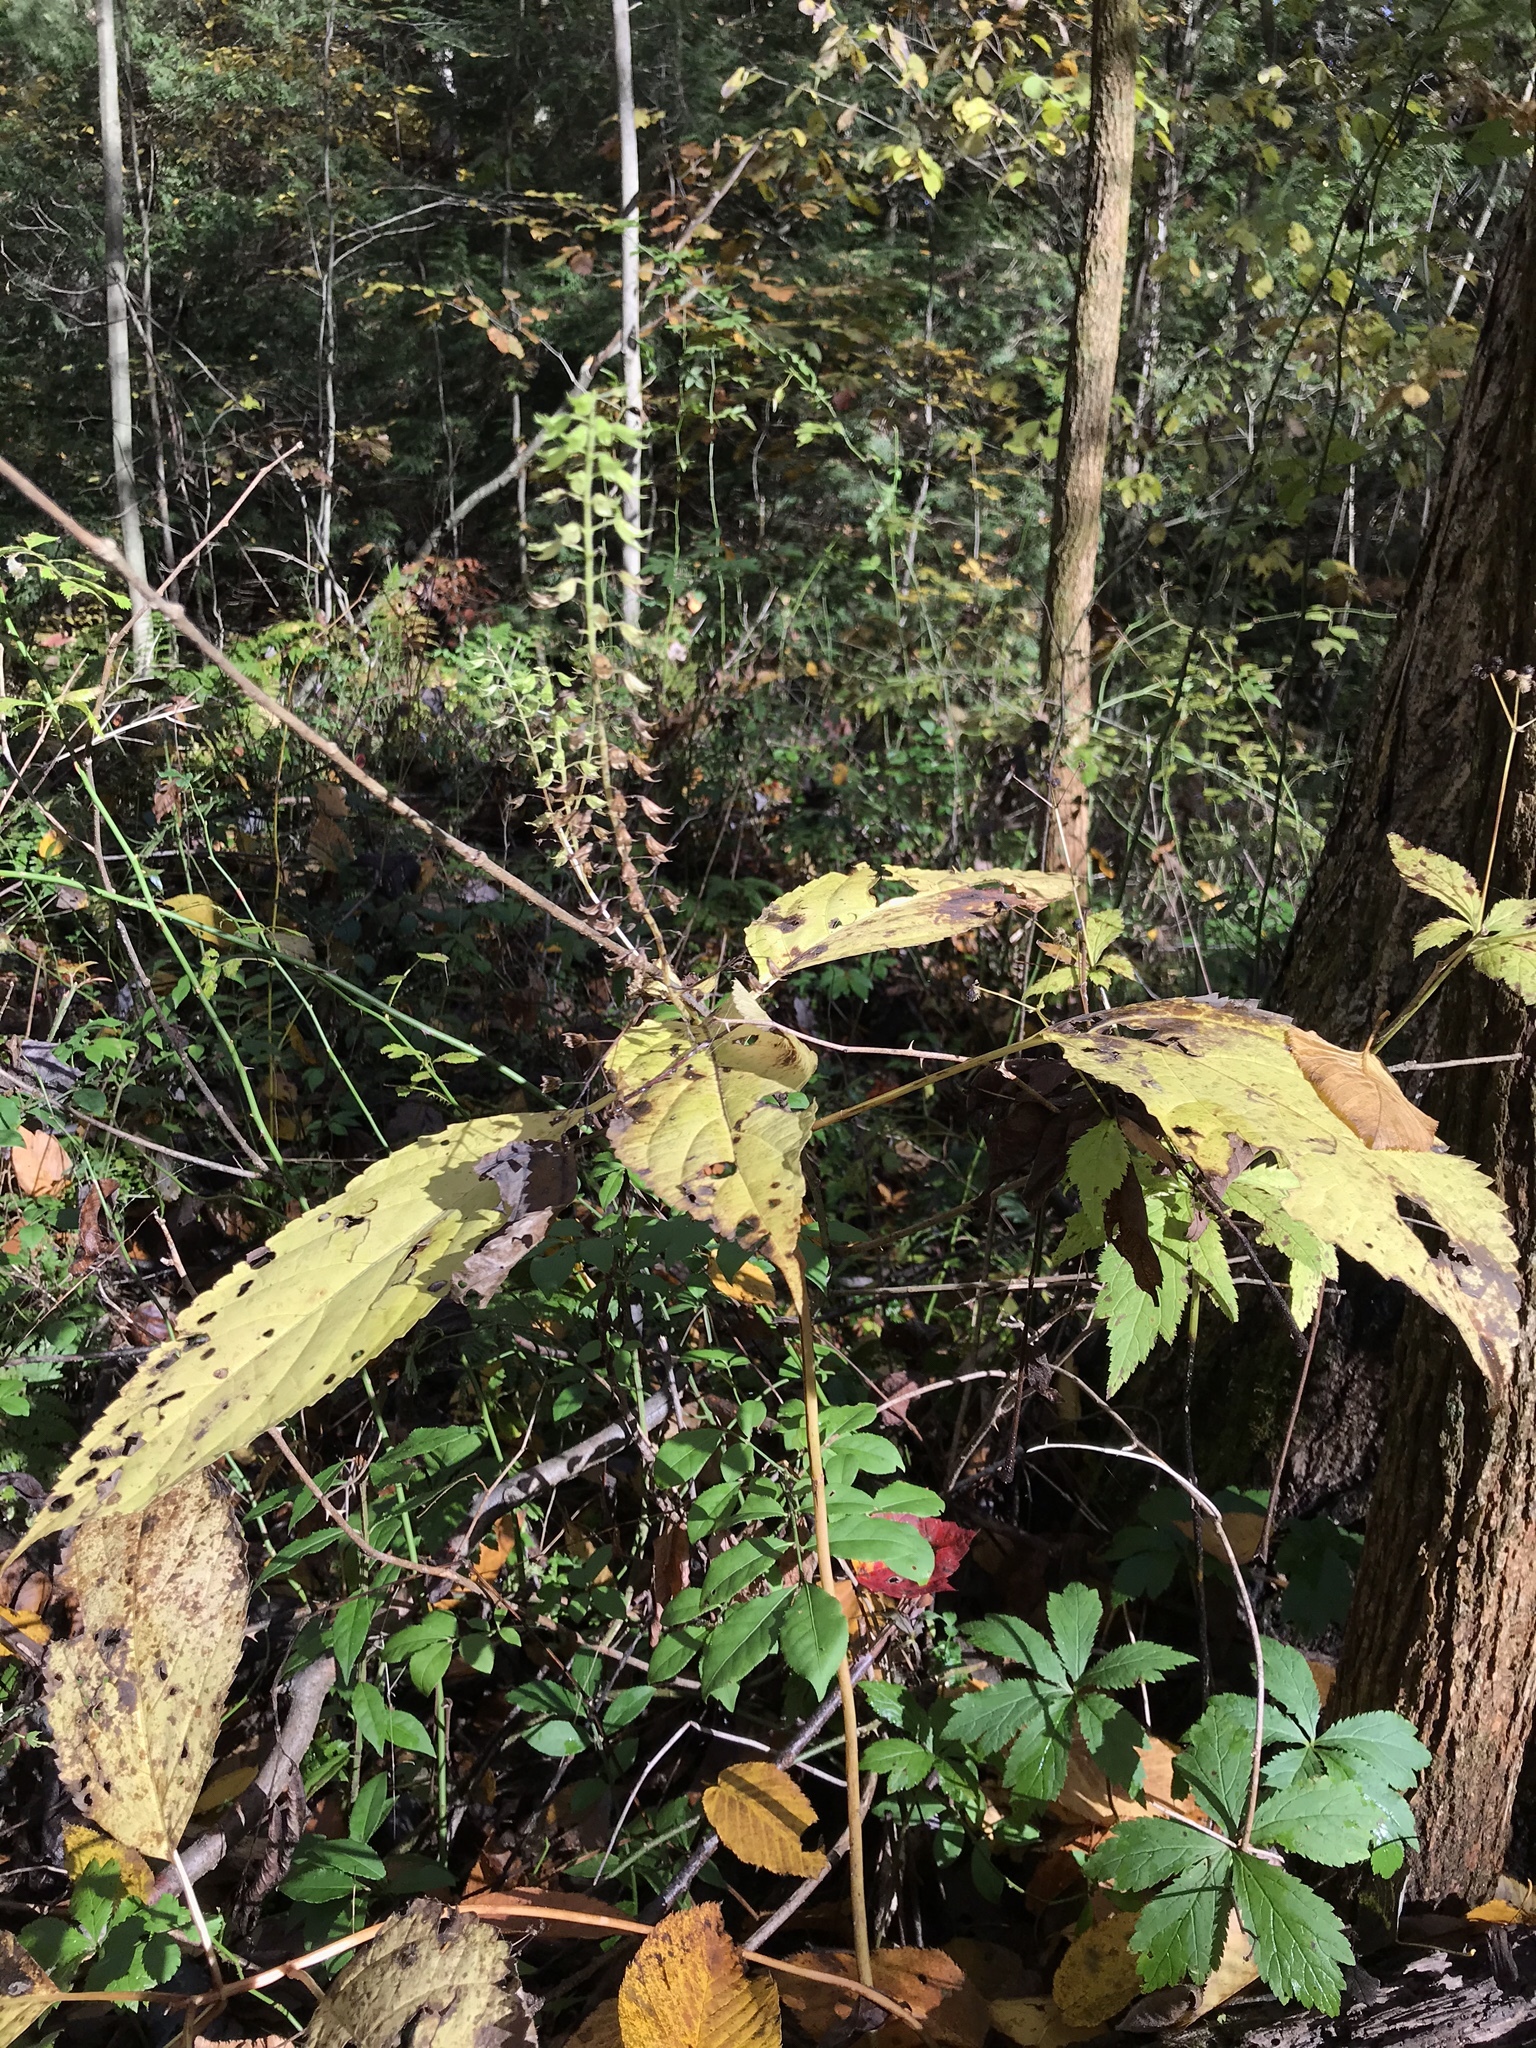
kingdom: Plantae
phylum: Tracheophyta
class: Magnoliopsida
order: Lamiales
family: Lamiaceae
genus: Collinsonia
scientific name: Collinsonia canadensis
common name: Northern horsebalm
